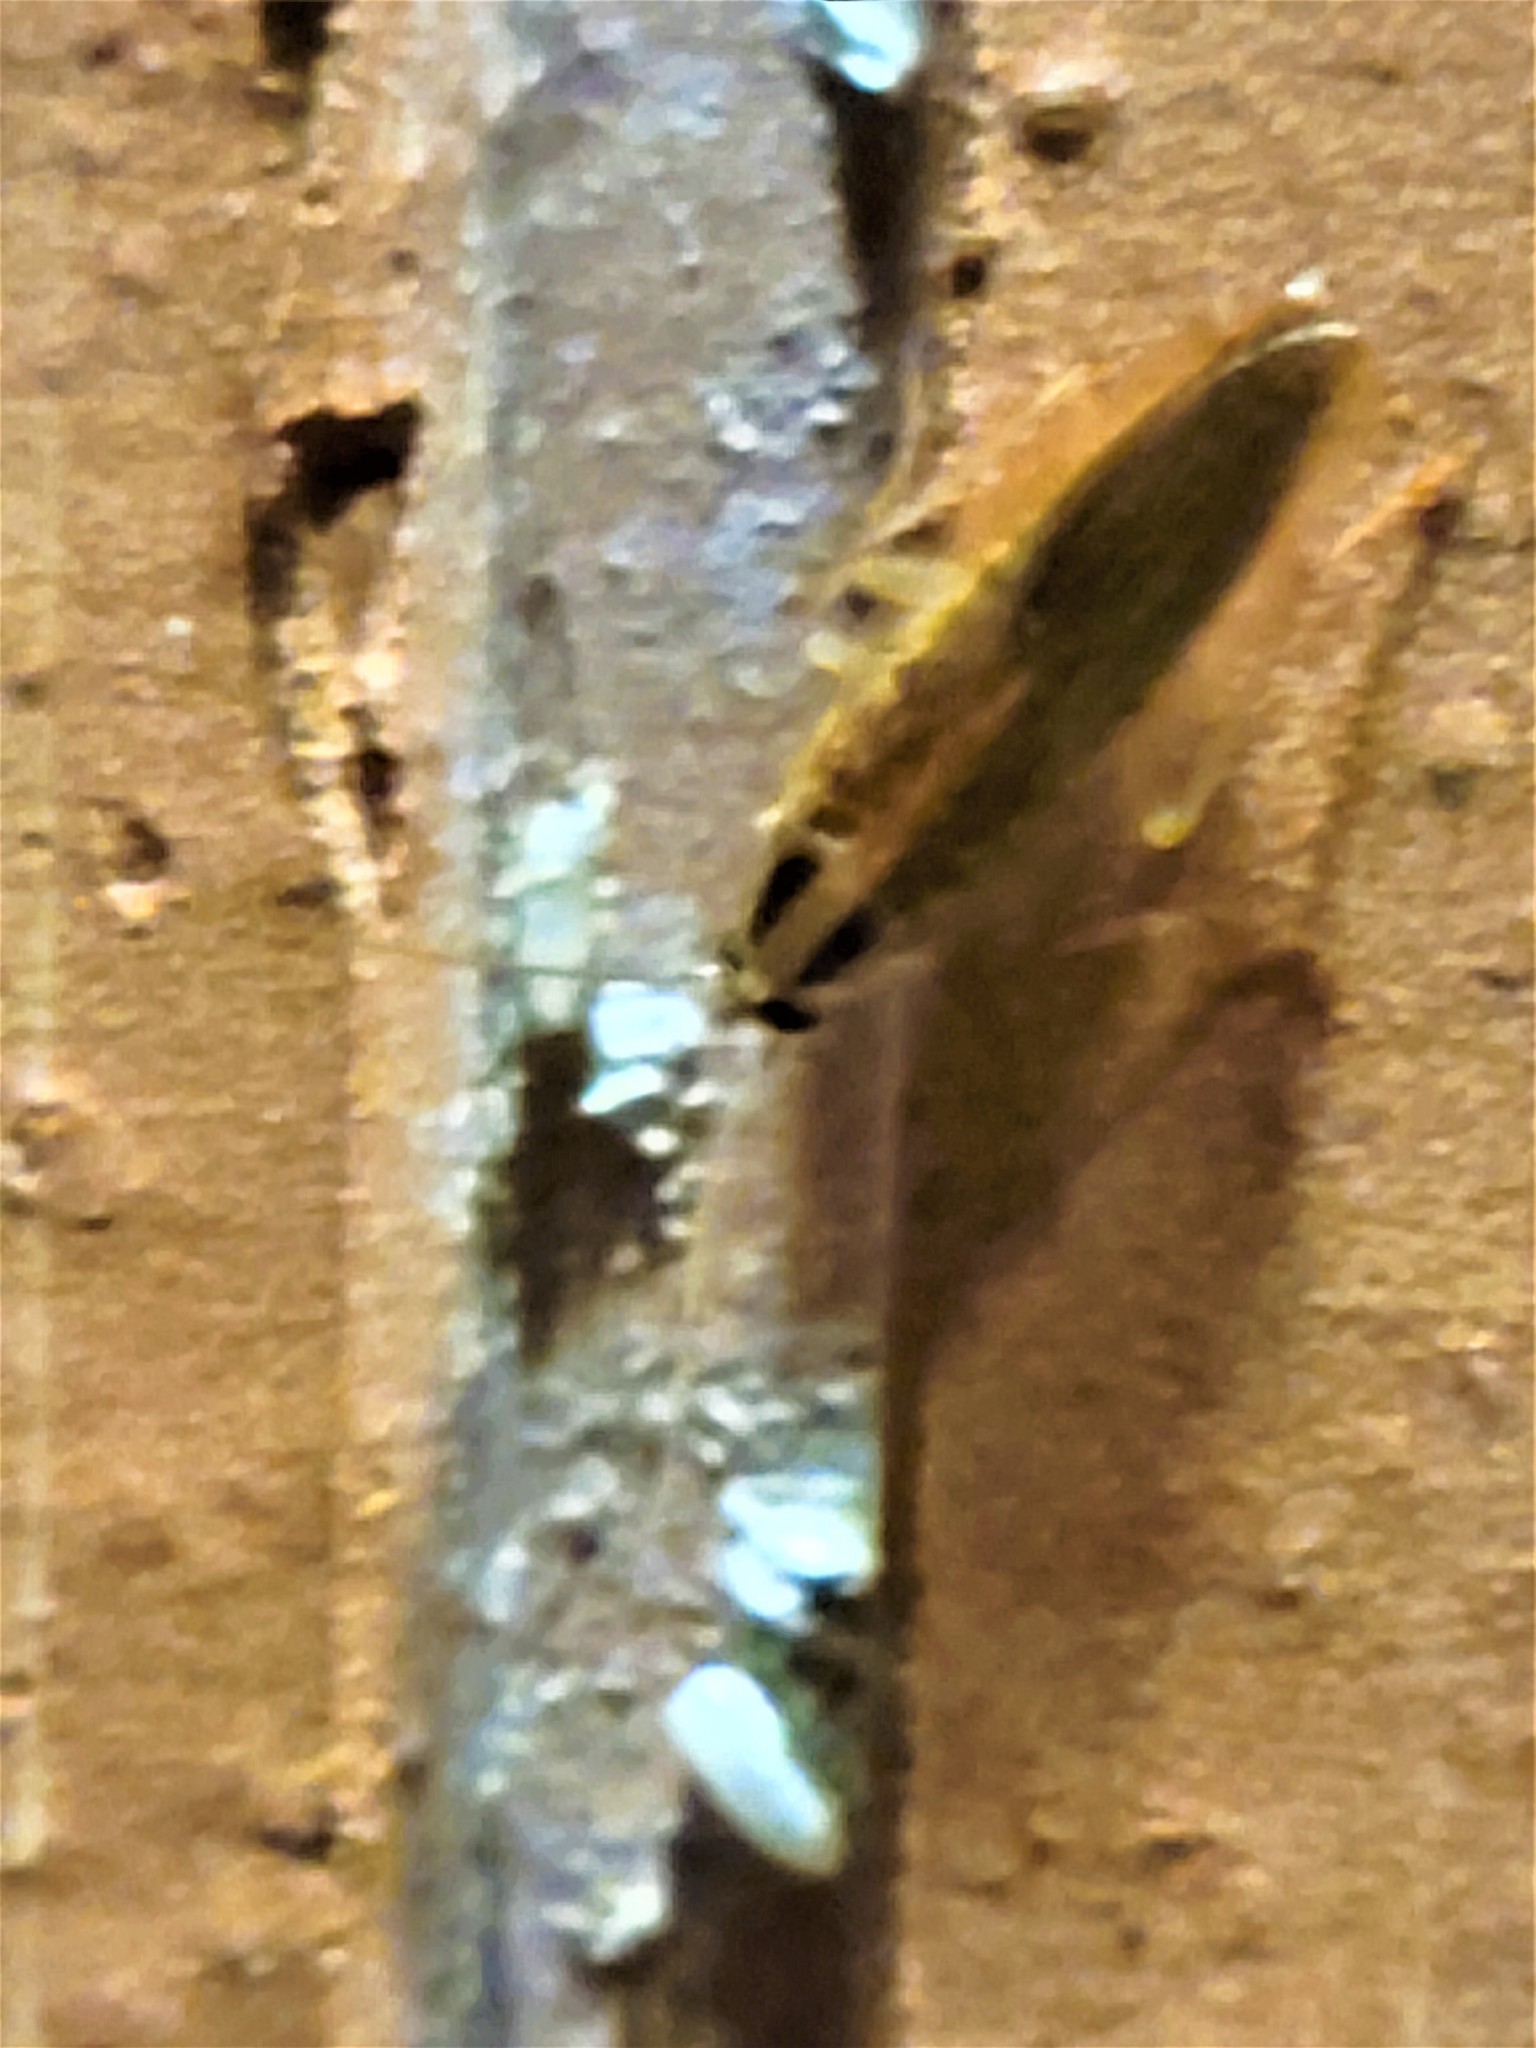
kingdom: Animalia
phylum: Arthropoda
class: Insecta
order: Blattodea
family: Ectobiidae
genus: Blattella
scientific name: Blattella asahinai
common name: Asian cockroach
